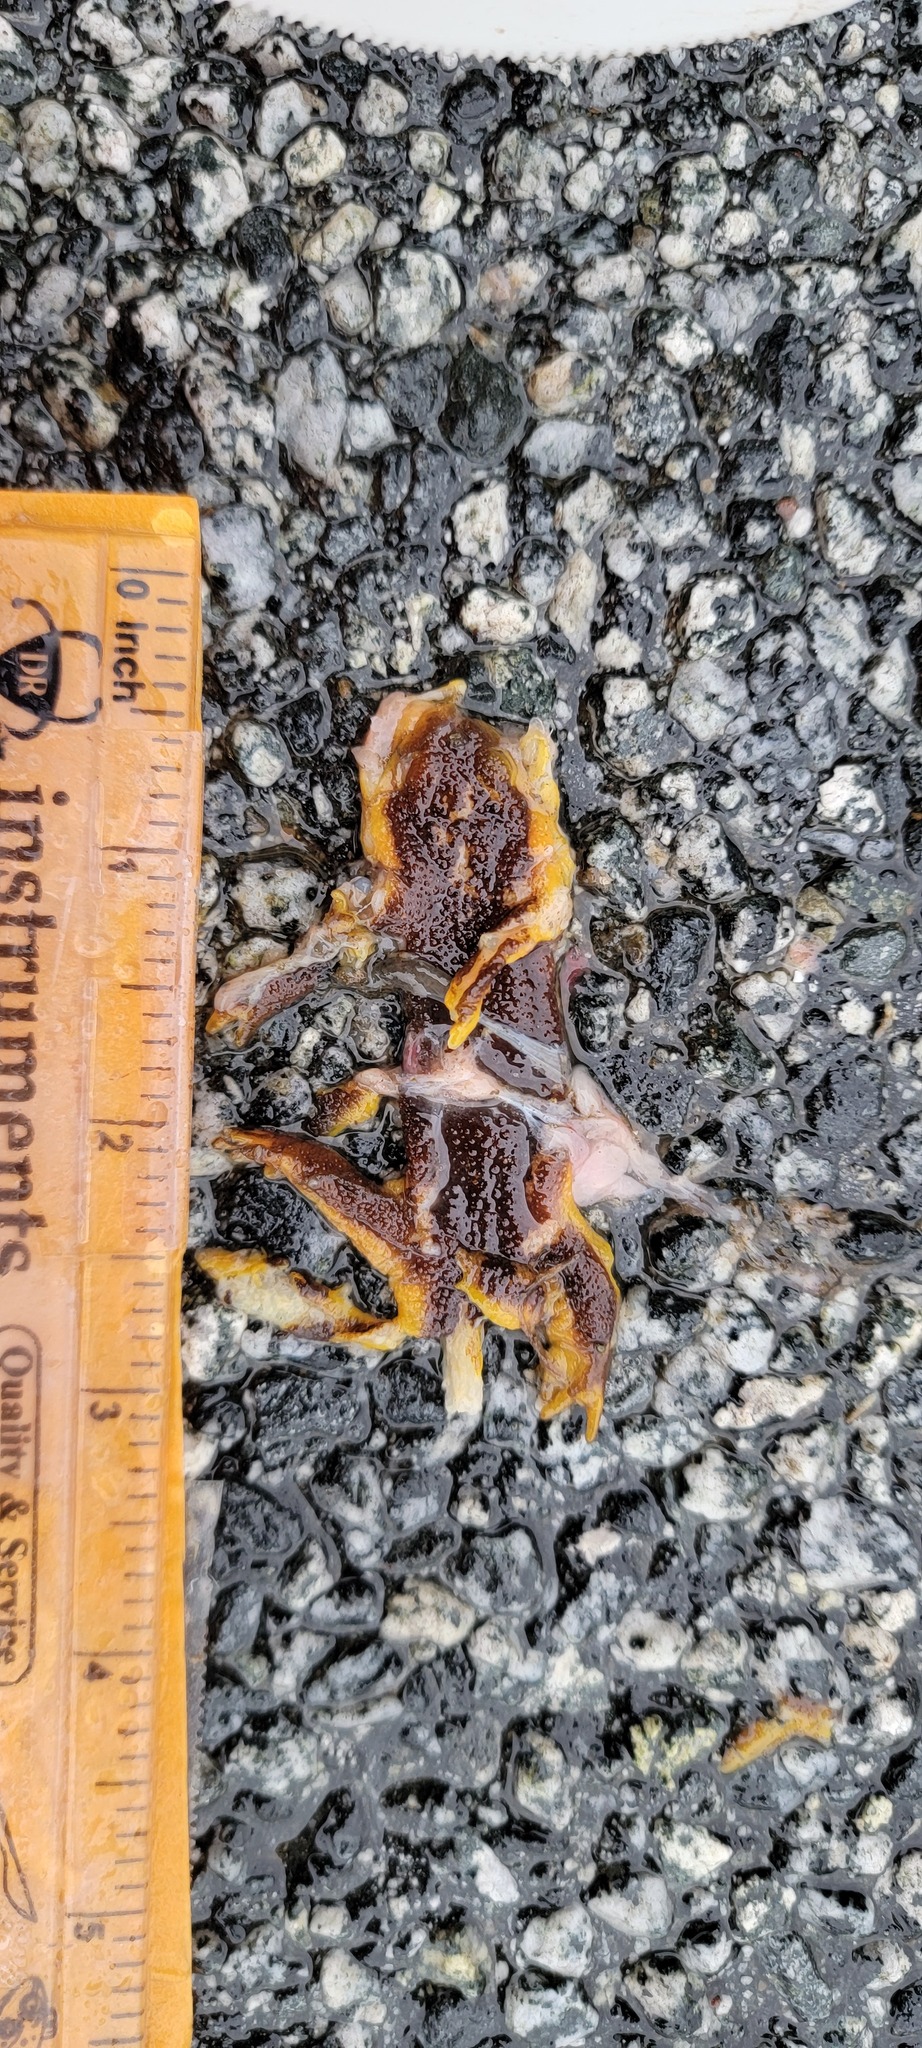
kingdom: Animalia
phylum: Chordata
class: Amphibia
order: Caudata
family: Salamandridae
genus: Taricha
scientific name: Taricha
